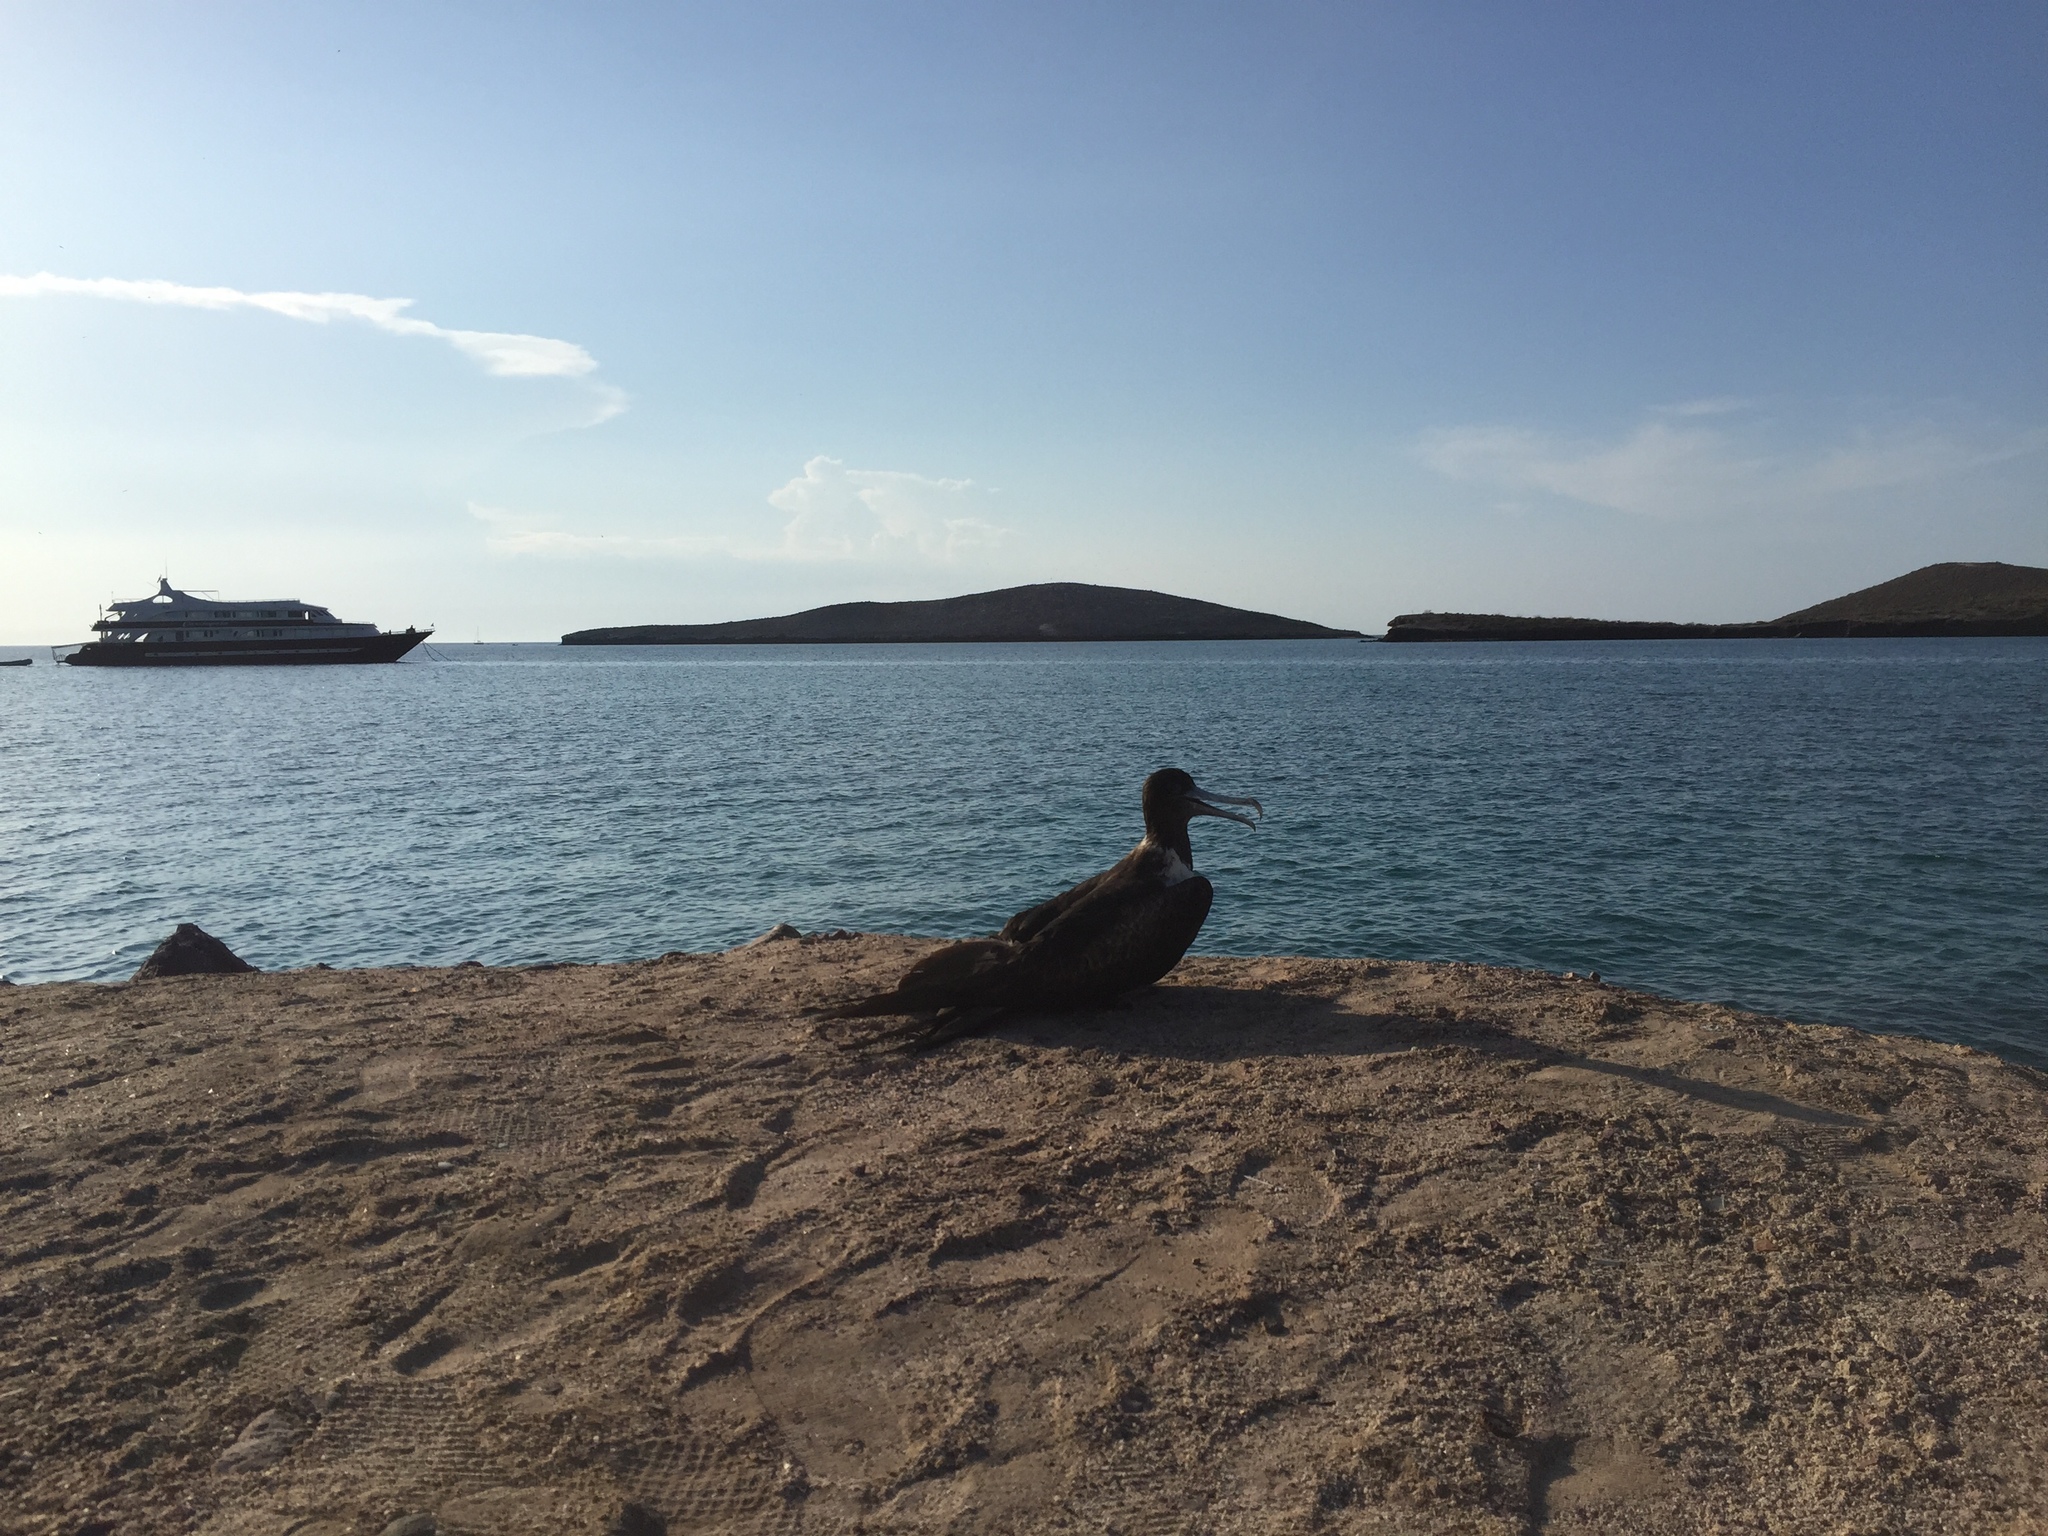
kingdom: Animalia
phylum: Chordata
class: Aves
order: Suliformes
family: Fregatidae
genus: Fregata
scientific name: Fregata magnificens
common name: Magnificent frigatebird
